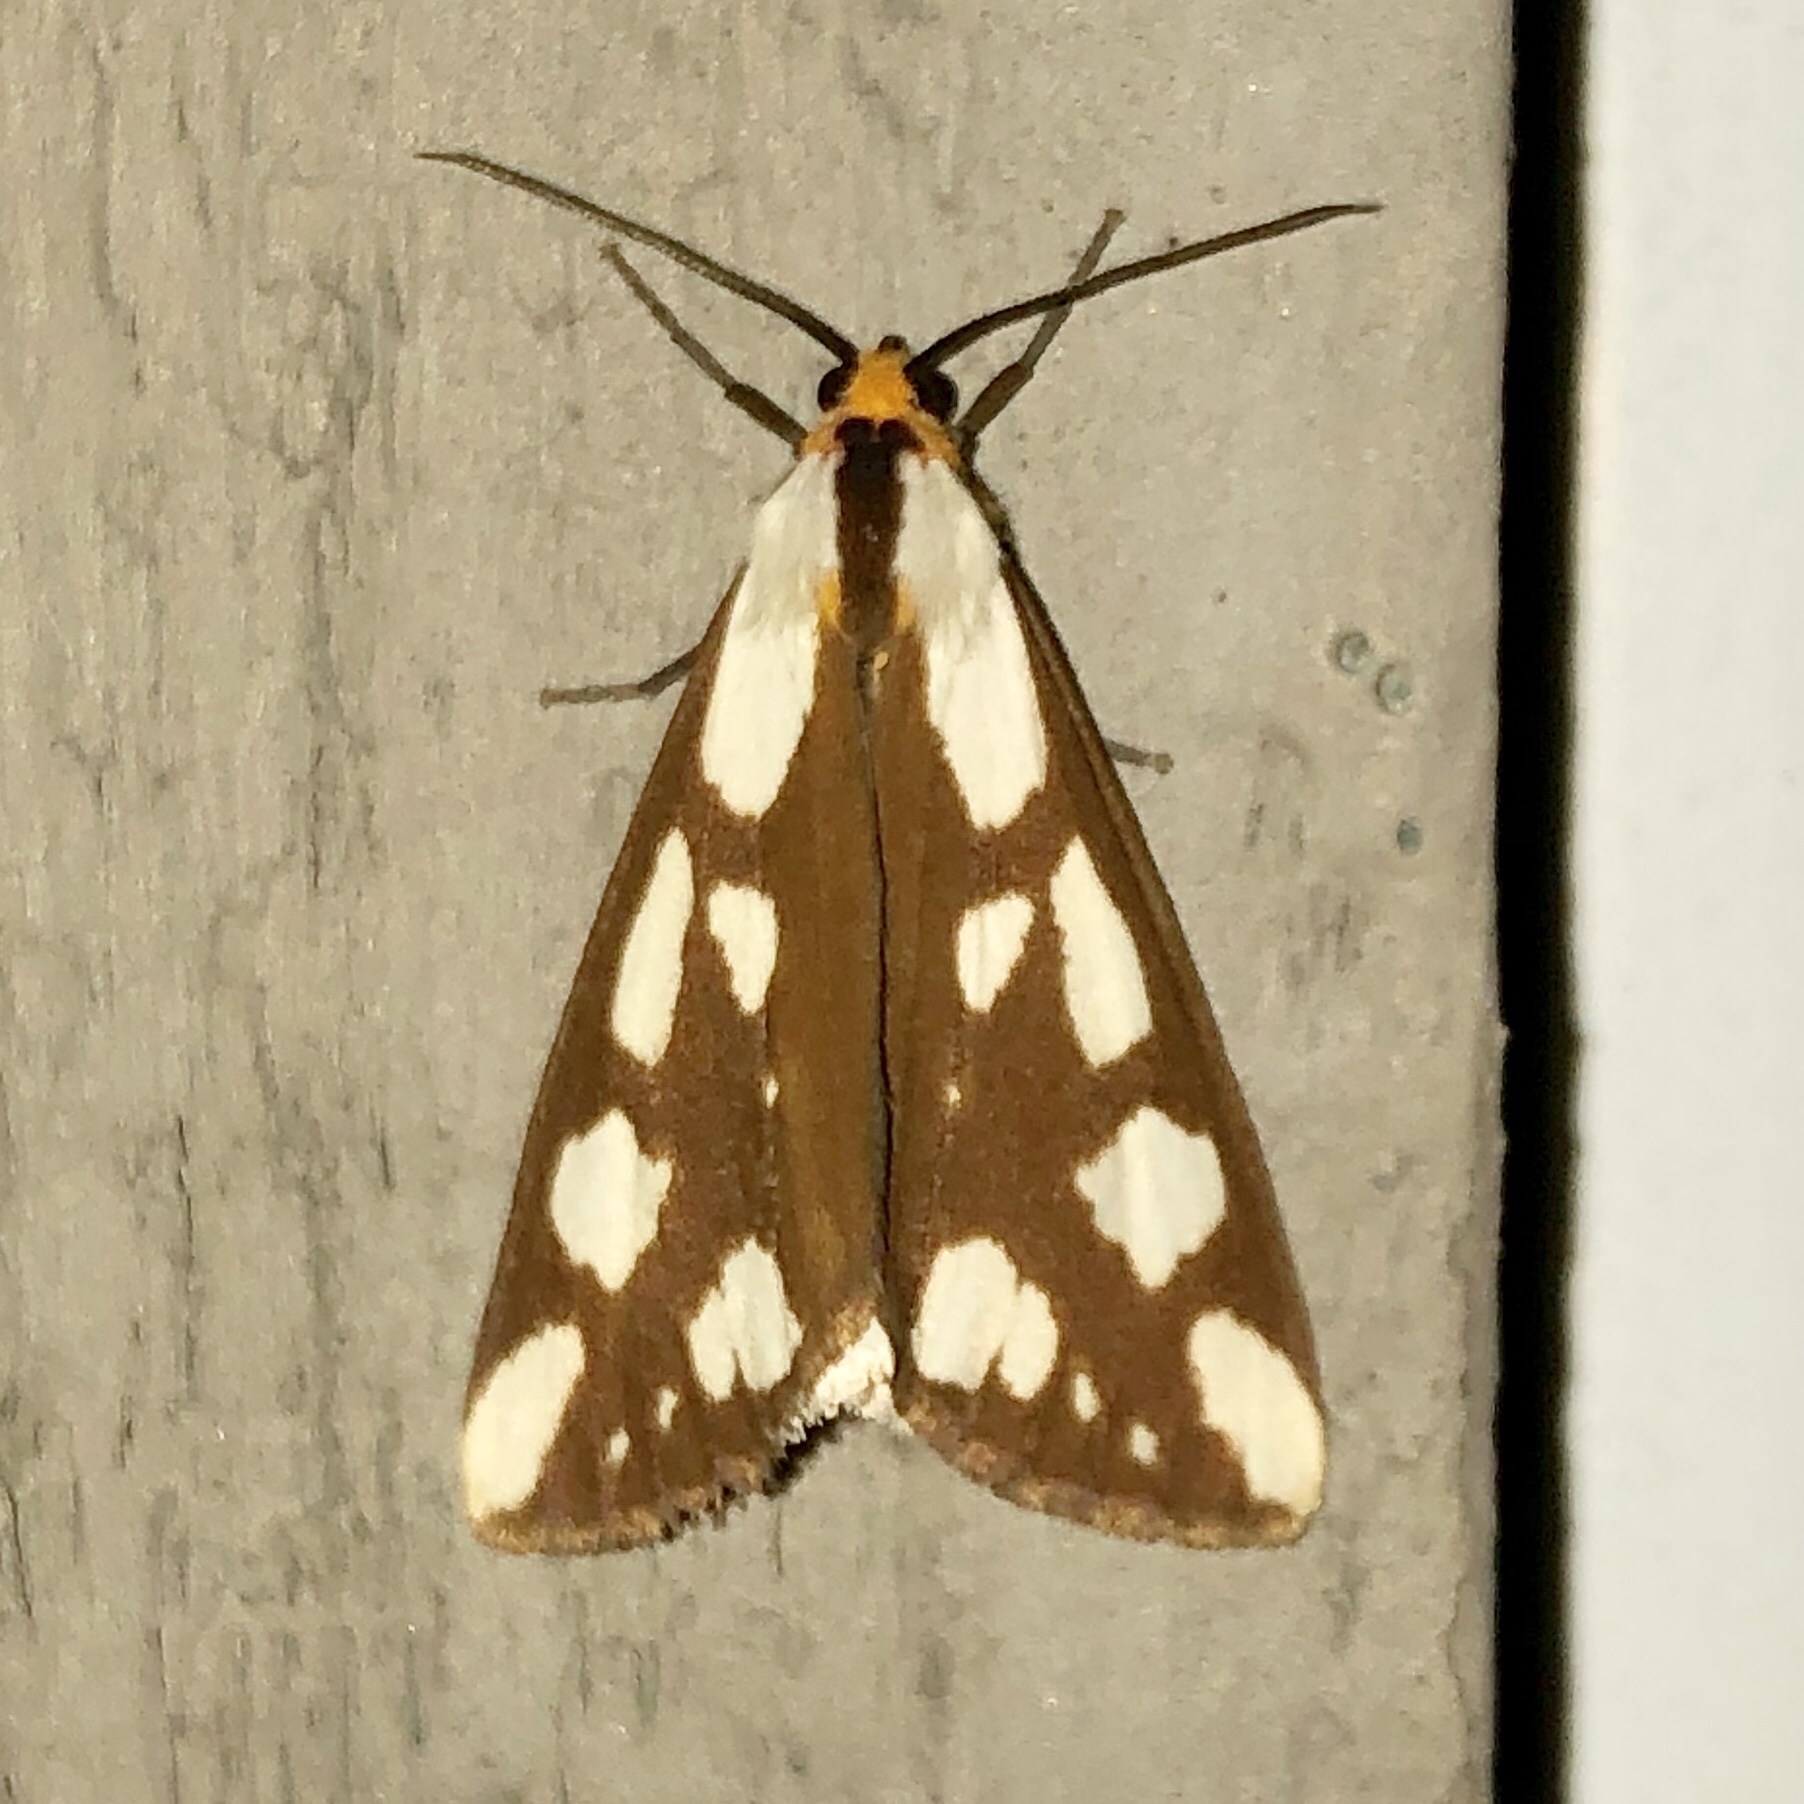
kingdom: Animalia
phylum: Arthropoda
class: Insecta
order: Lepidoptera
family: Erebidae
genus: Haploa
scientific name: Haploa confusa
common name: Confused haploa moth
